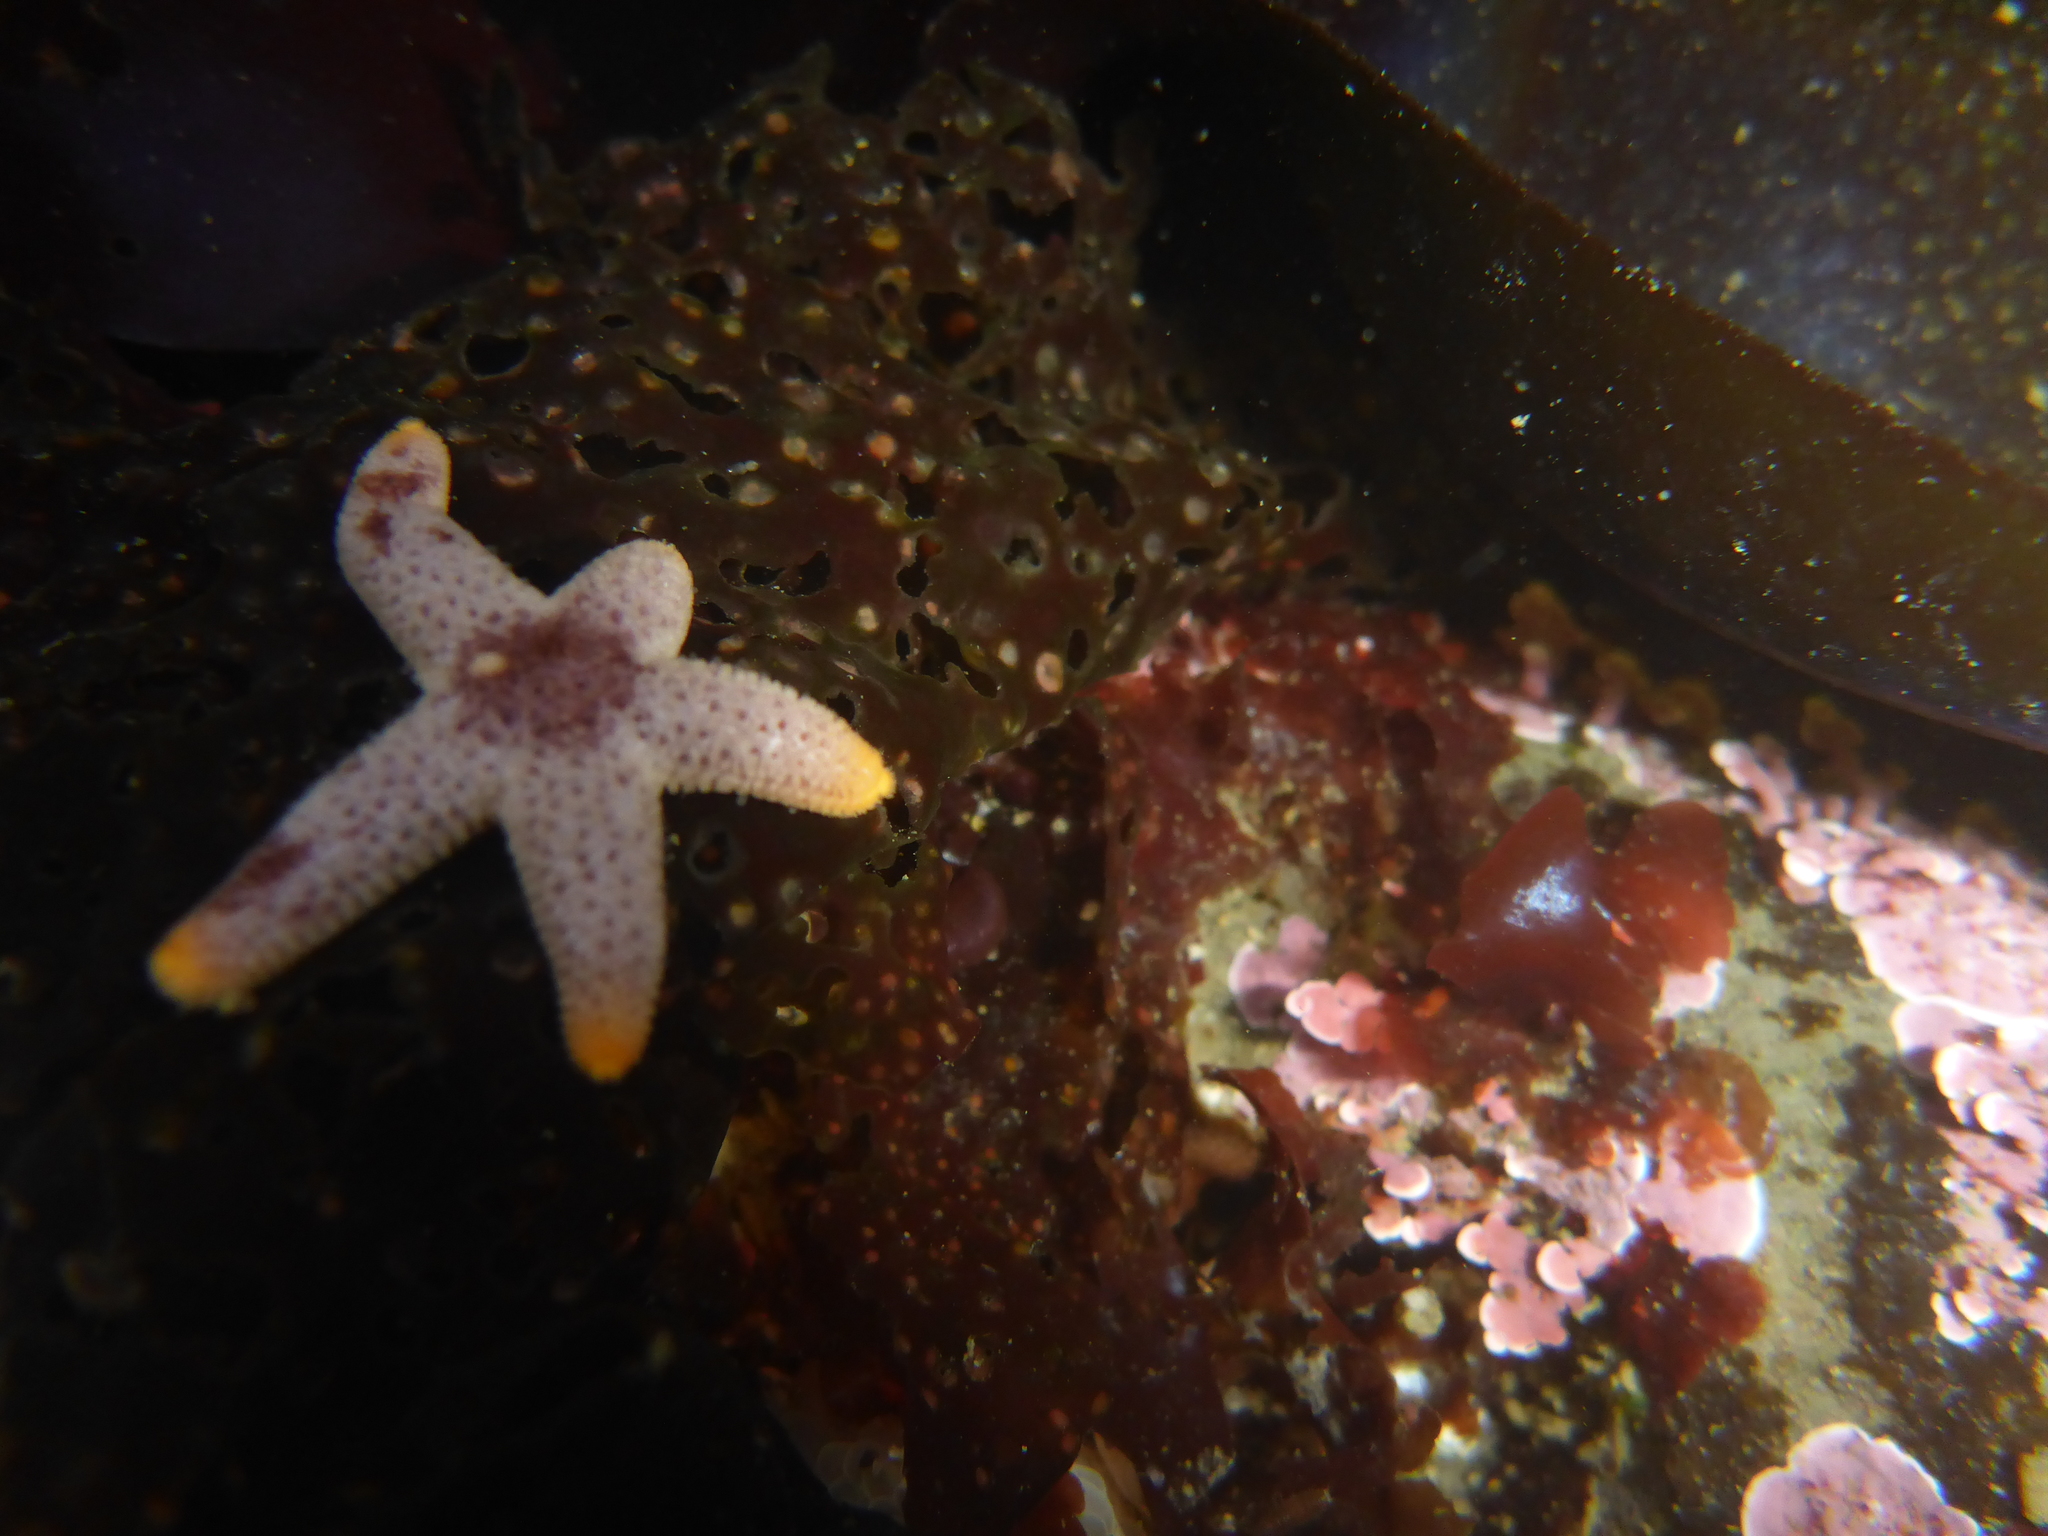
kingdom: Animalia
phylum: Echinodermata
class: Asteroidea
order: Spinulosida
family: Echinasteridae
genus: Henricia
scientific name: Henricia pumila
